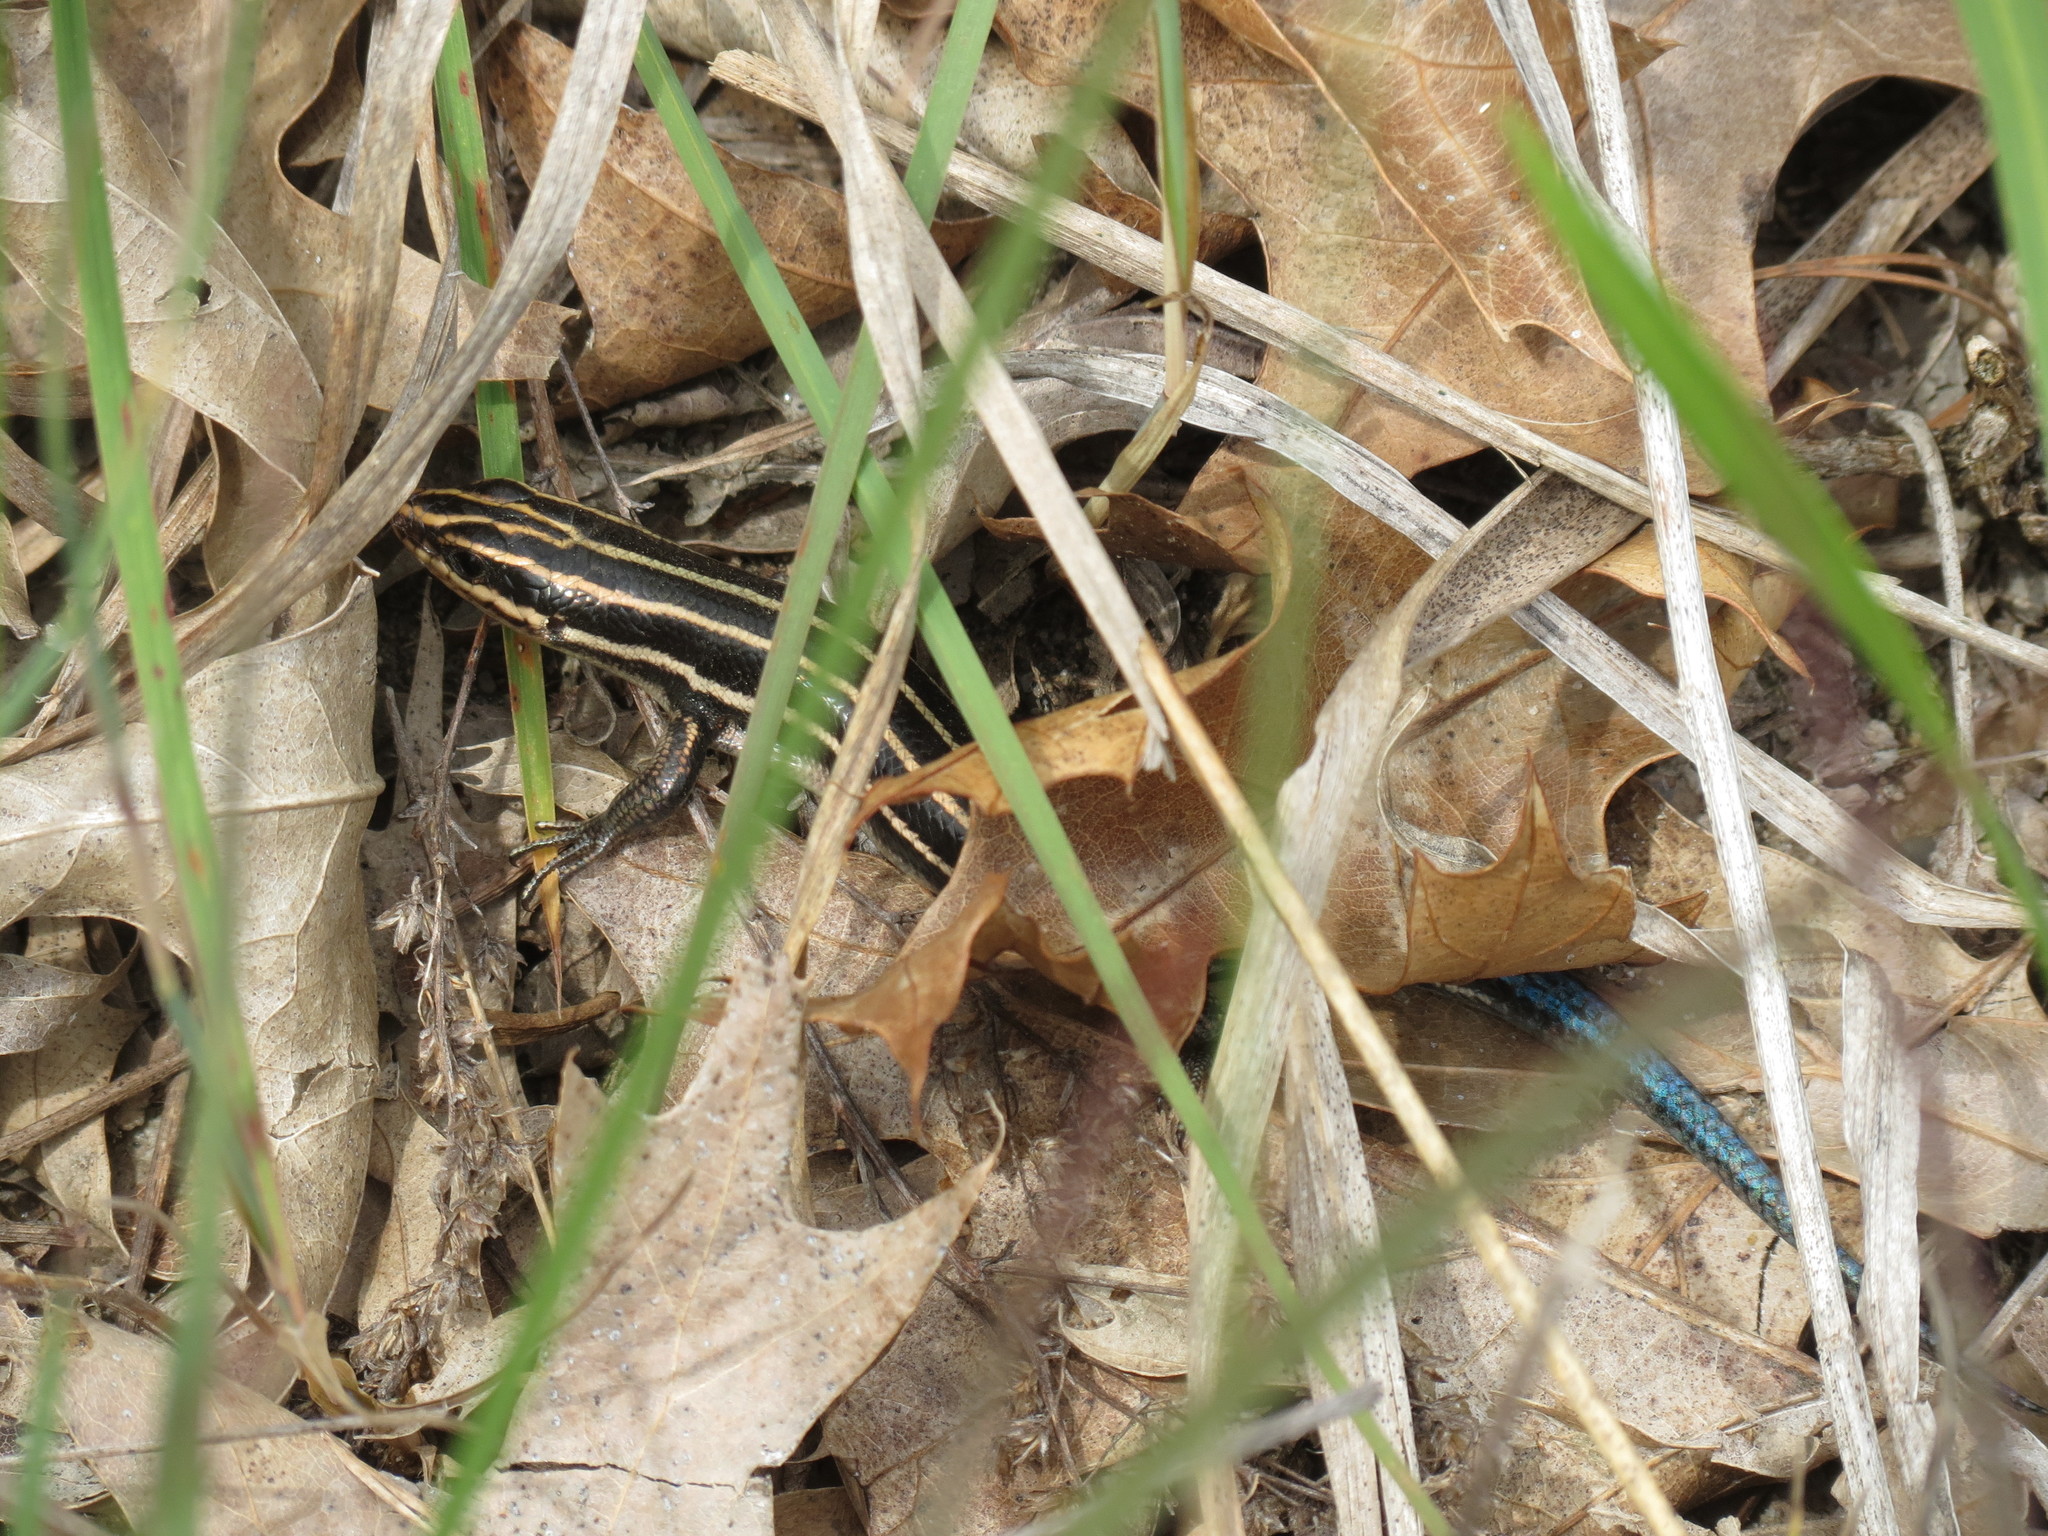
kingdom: Animalia
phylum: Chordata
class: Squamata
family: Scincidae
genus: Plestiodon
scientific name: Plestiodon fasciatus
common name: Five-lined skink
